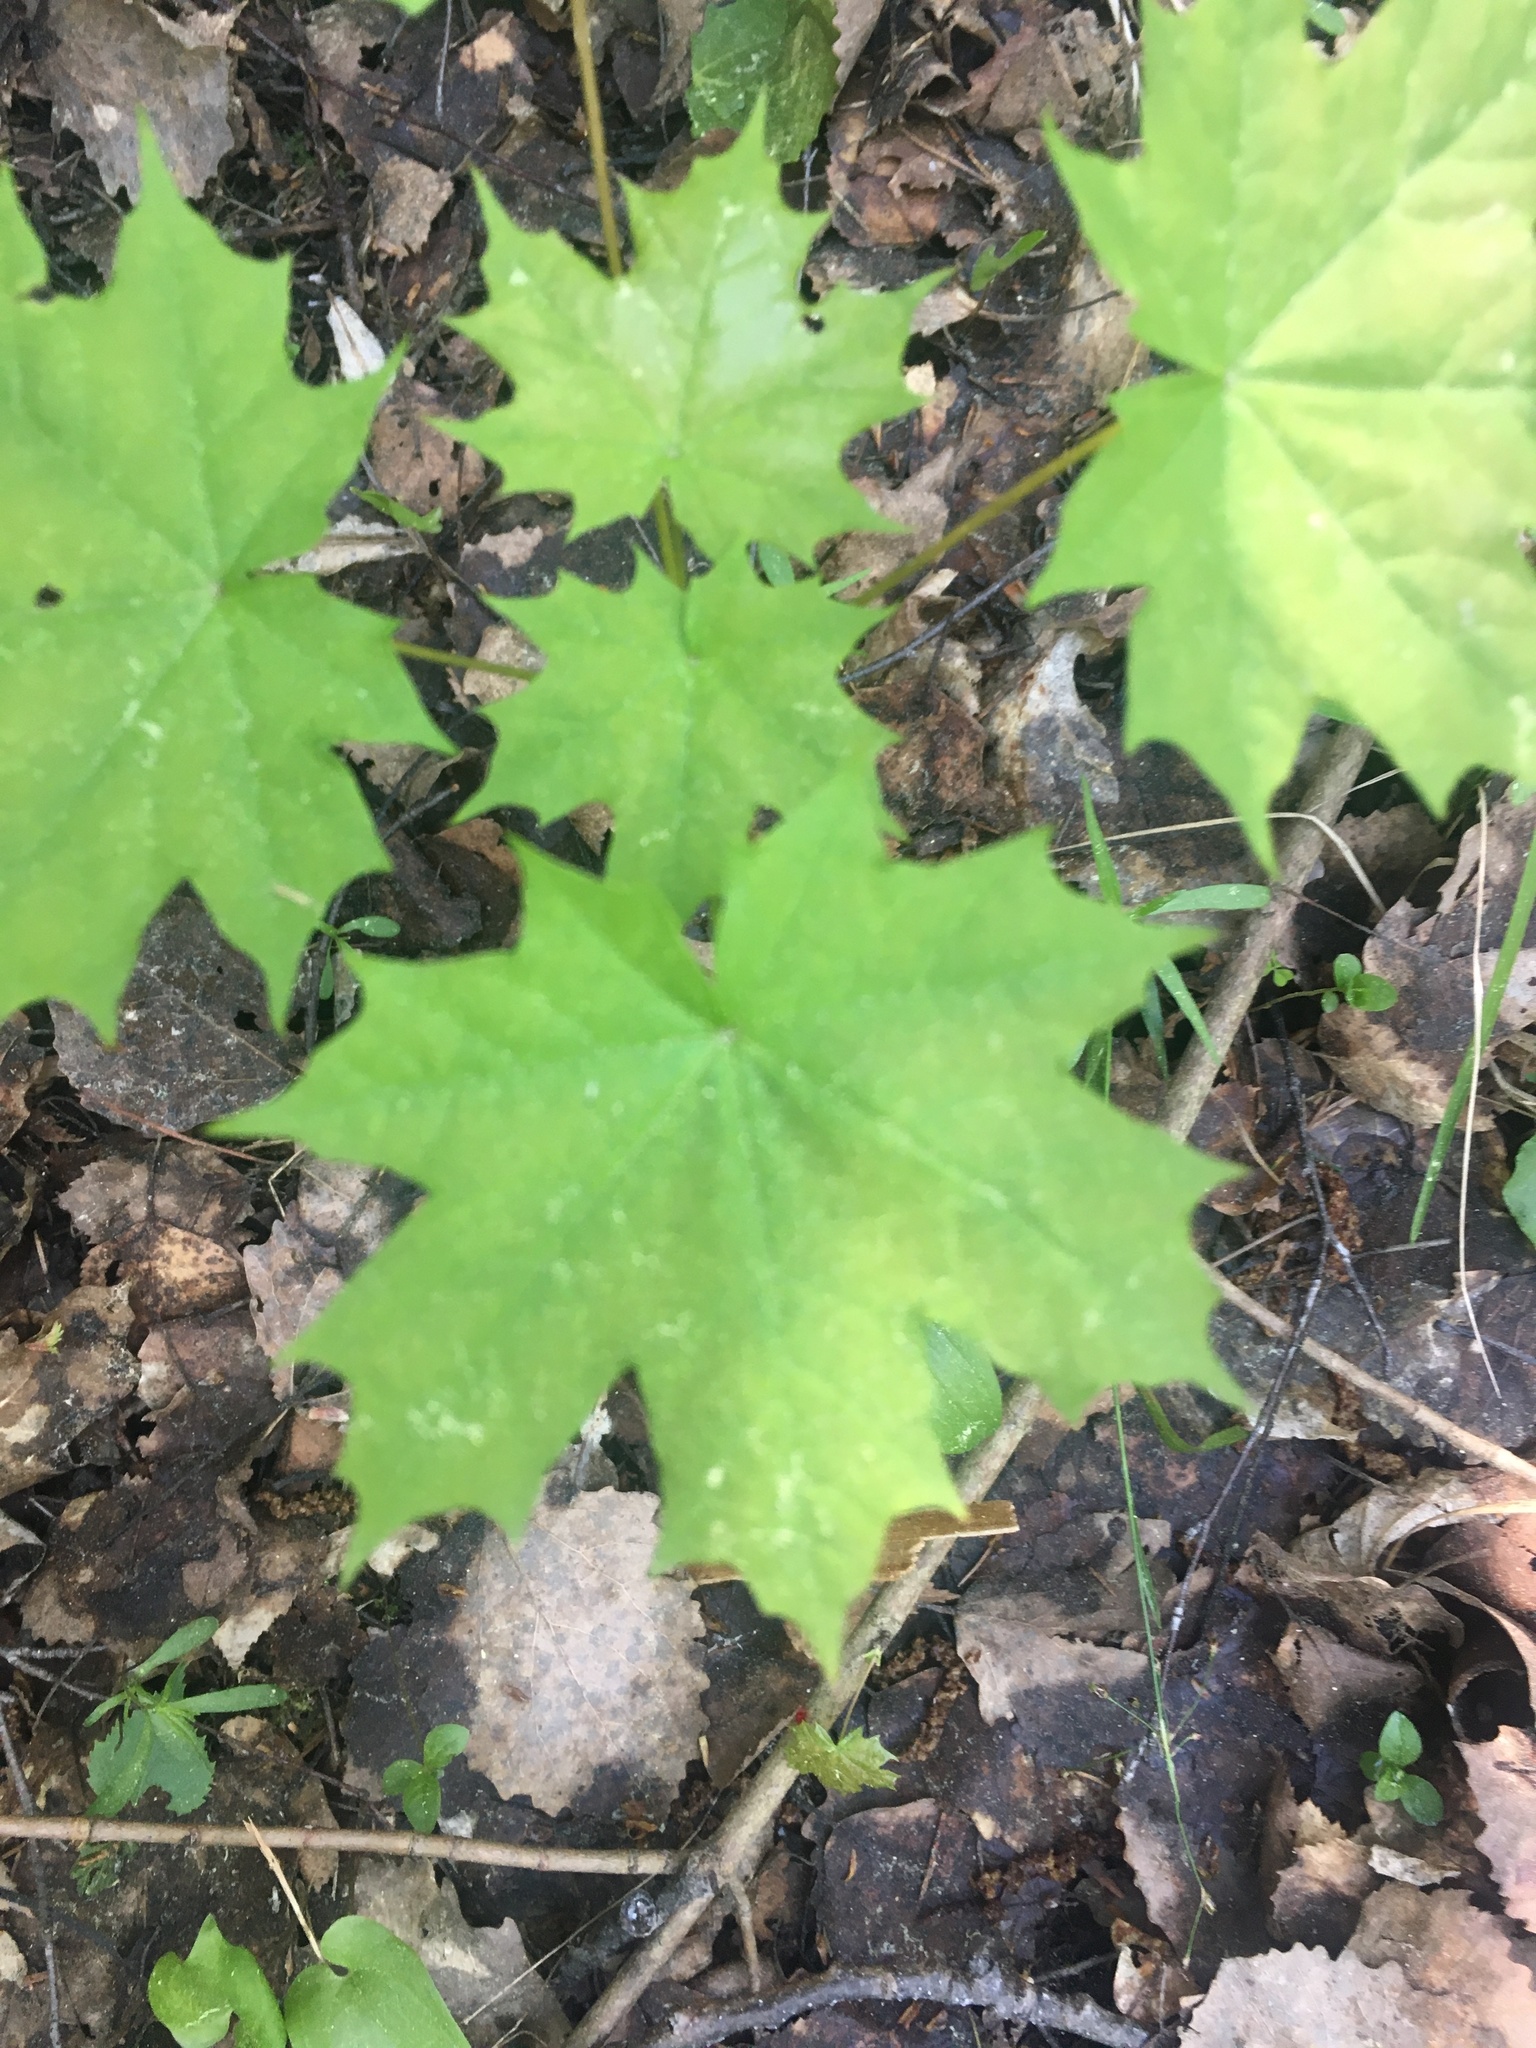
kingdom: Plantae
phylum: Tracheophyta
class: Magnoliopsida
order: Sapindales
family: Sapindaceae
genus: Acer
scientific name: Acer platanoides
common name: Norway maple
